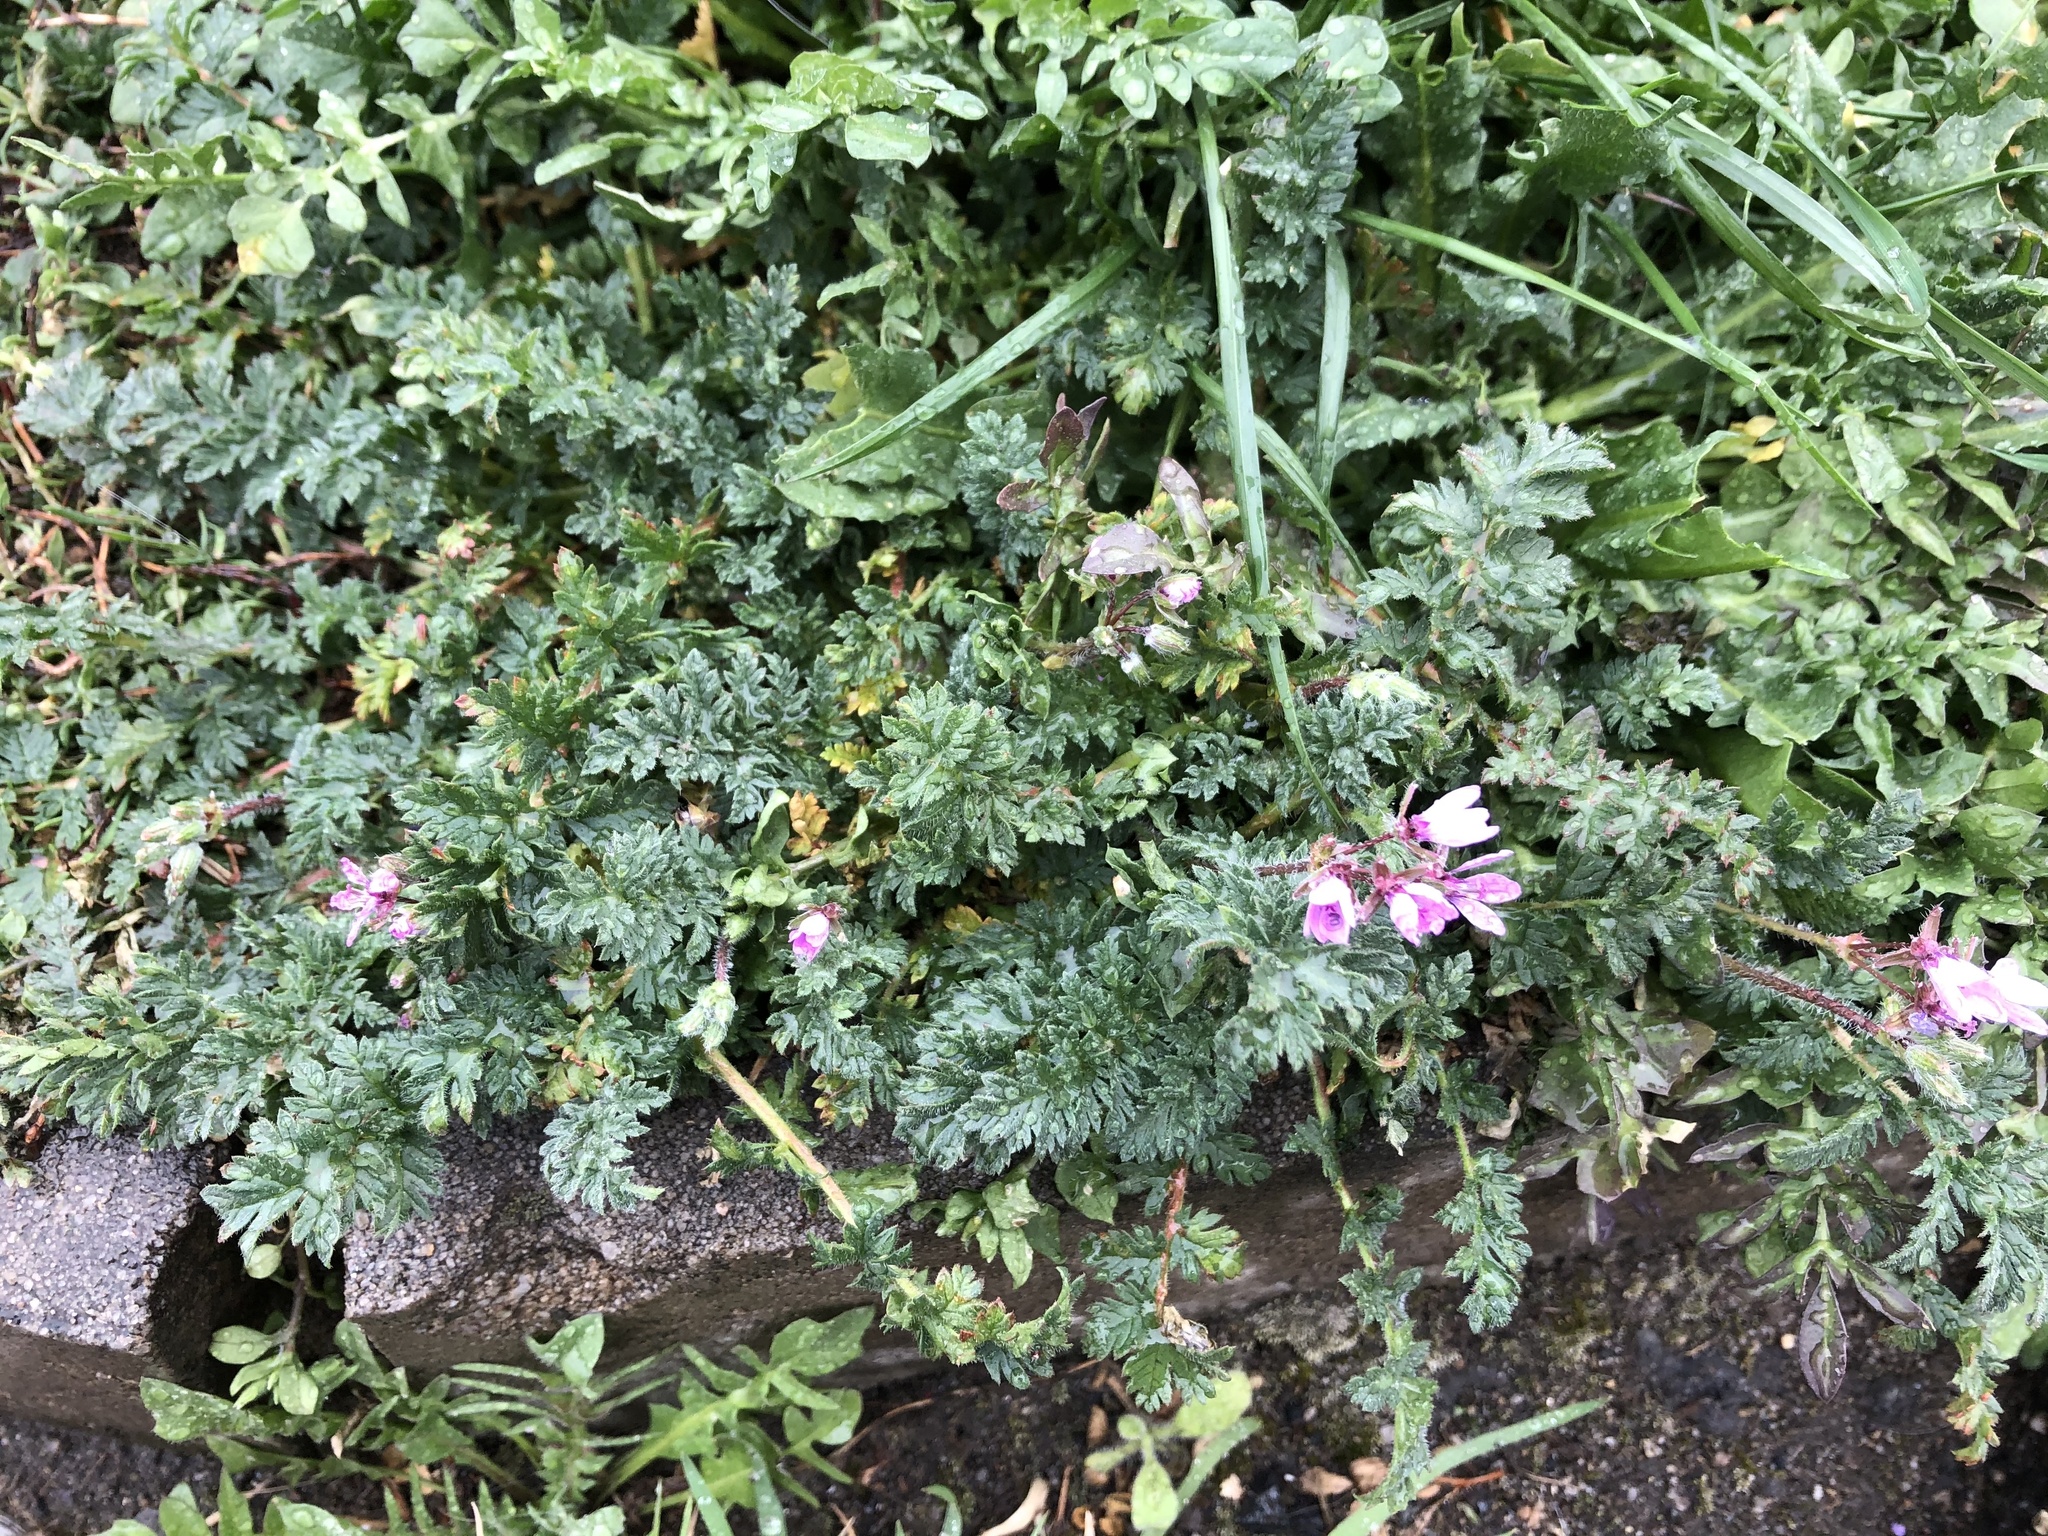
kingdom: Plantae
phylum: Tracheophyta
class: Magnoliopsida
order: Geraniales
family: Geraniaceae
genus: Erodium
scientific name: Erodium cicutarium
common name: Common stork's-bill
